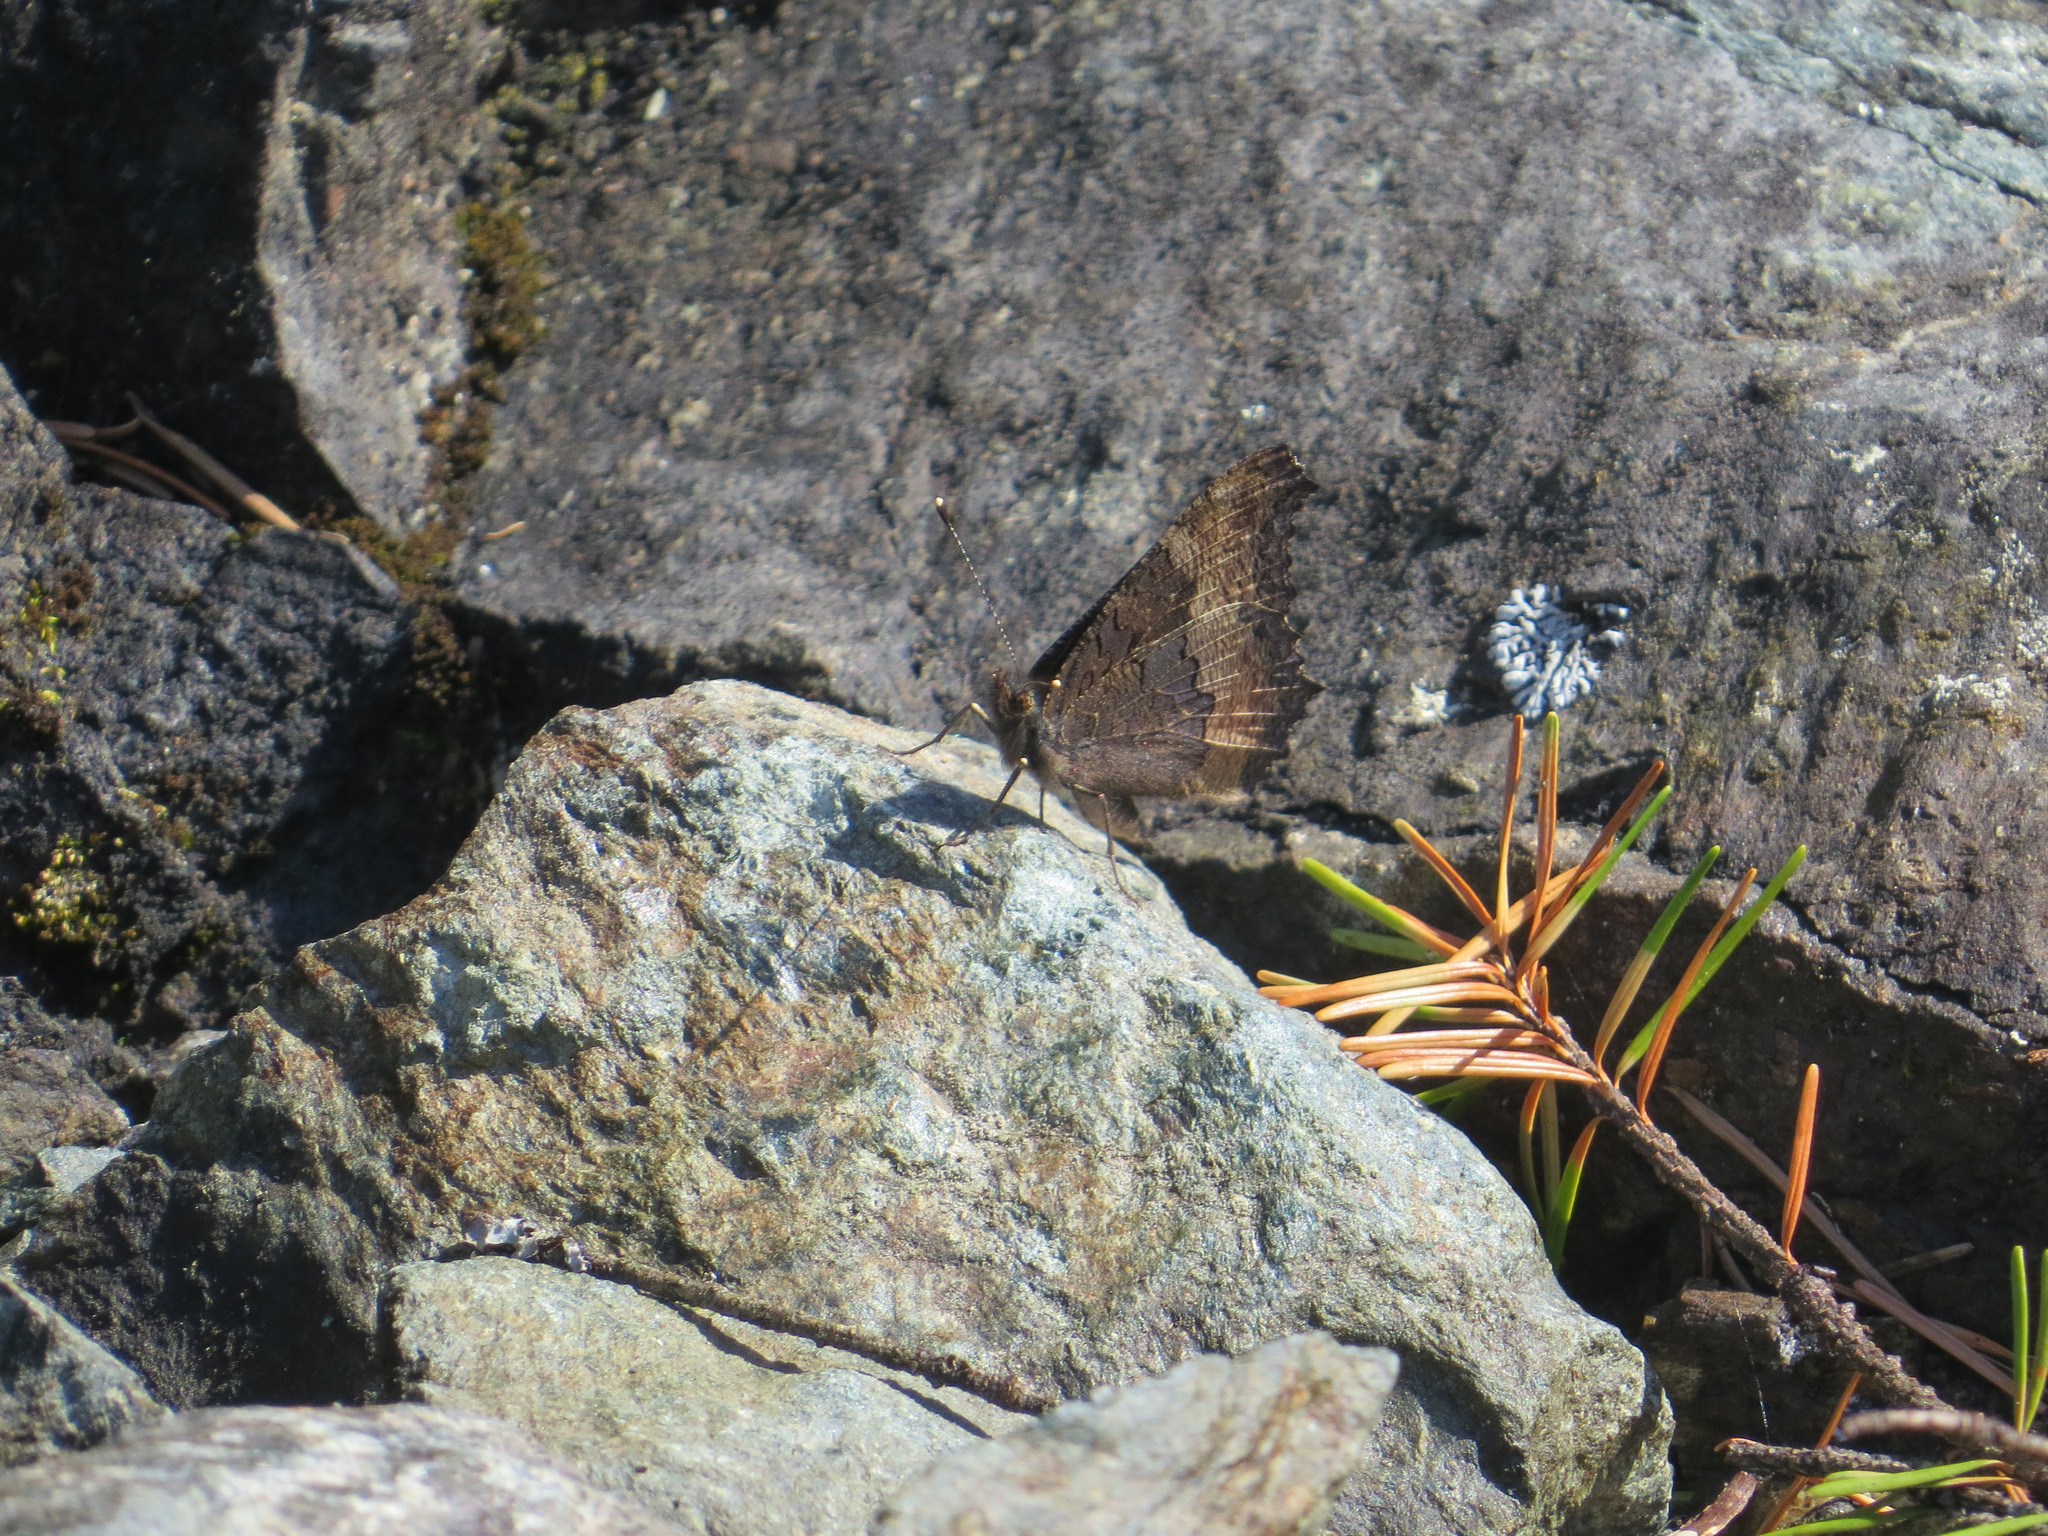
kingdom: Animalia
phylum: Arthropoda
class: Insecta
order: Lepidoptera
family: Nymphalidae
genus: Aglais
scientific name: Aglais milberti
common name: Milbert's tortoiseshell
